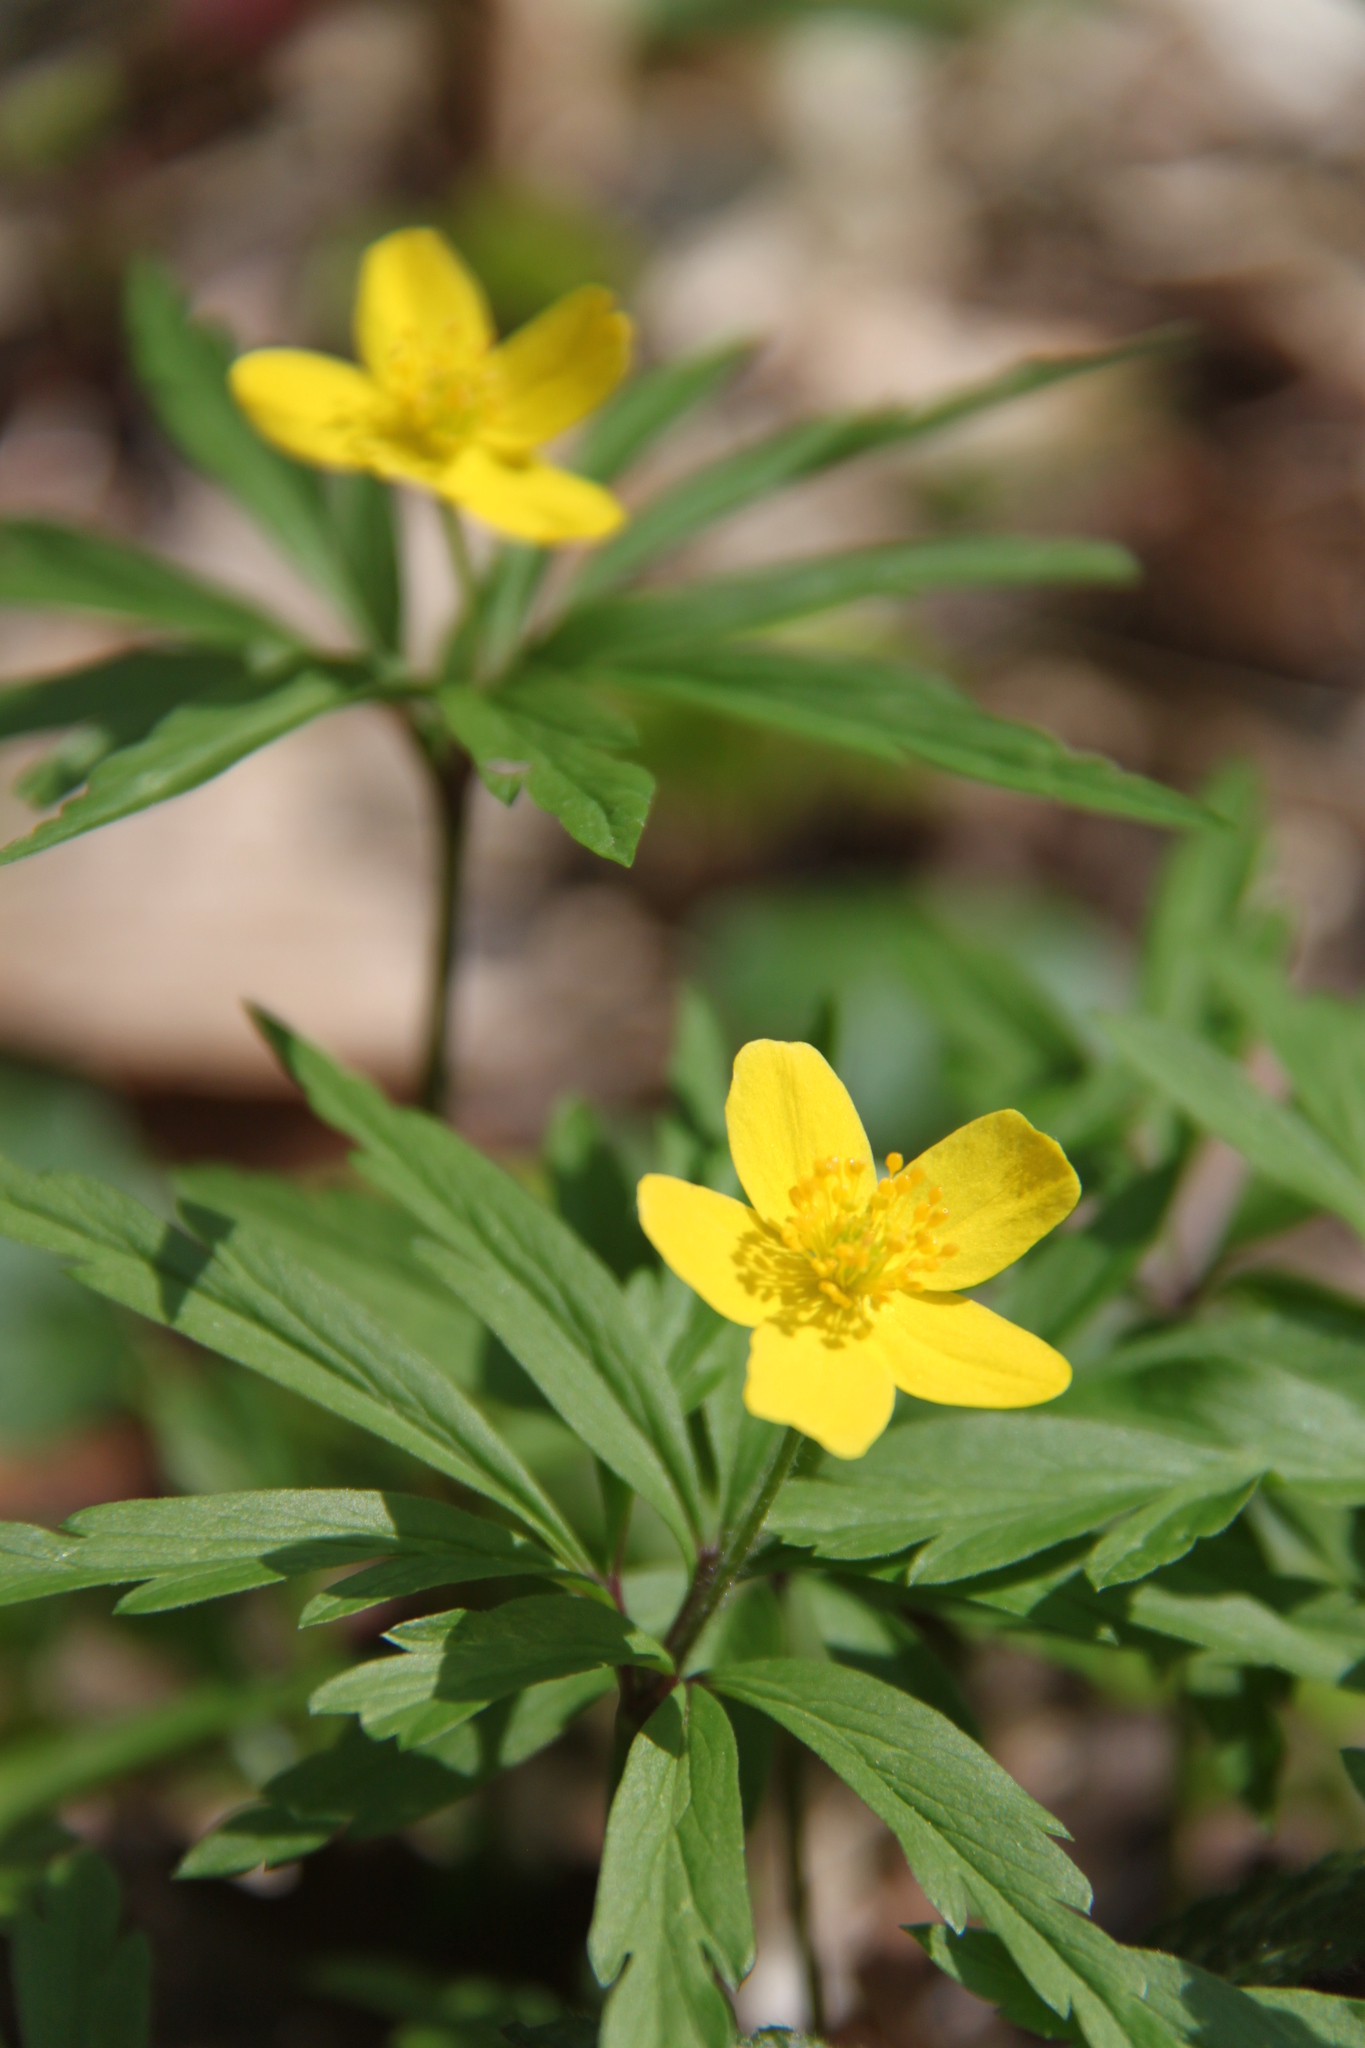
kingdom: Plantae
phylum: Tracheophyta
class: Magnoliopsida
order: Ranunculales
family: Ranunculaceae
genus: Anemone
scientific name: Anemone ranunculoides
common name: Yellow anemone
